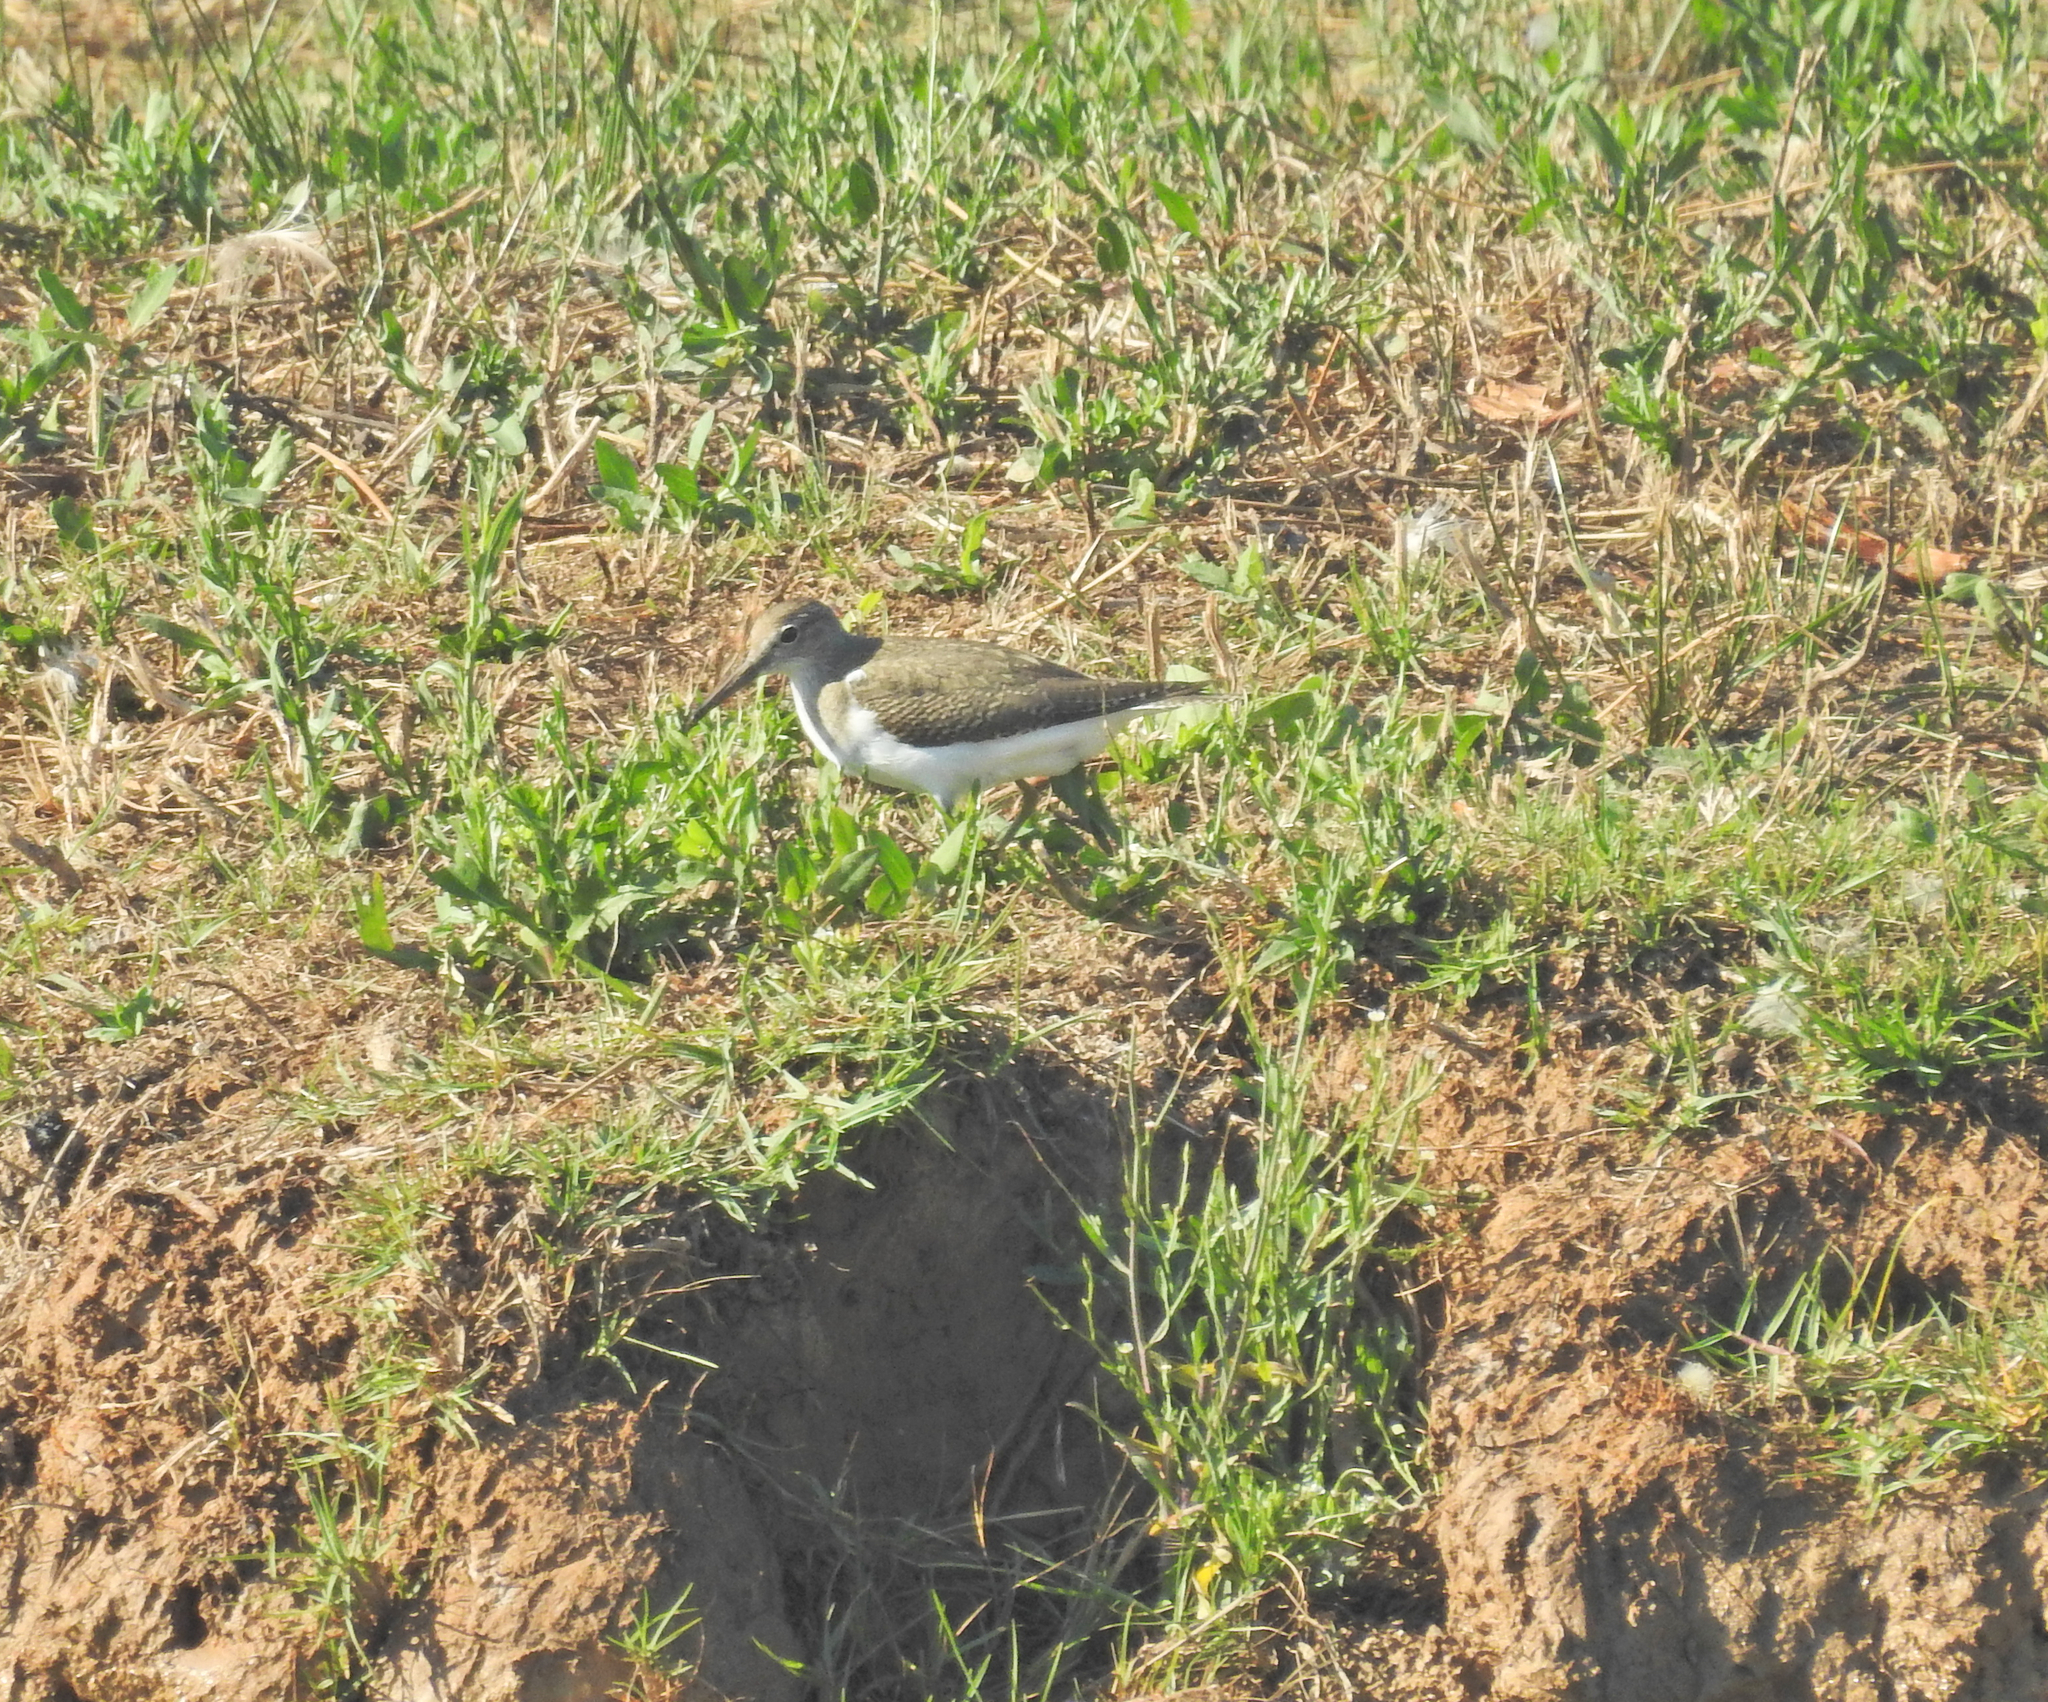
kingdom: Animalia
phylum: Chordata
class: Aves
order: Charadriiformes
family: Scolopacidae
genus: Actitis
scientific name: Actitis hypoleucos
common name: Common sandpiper
